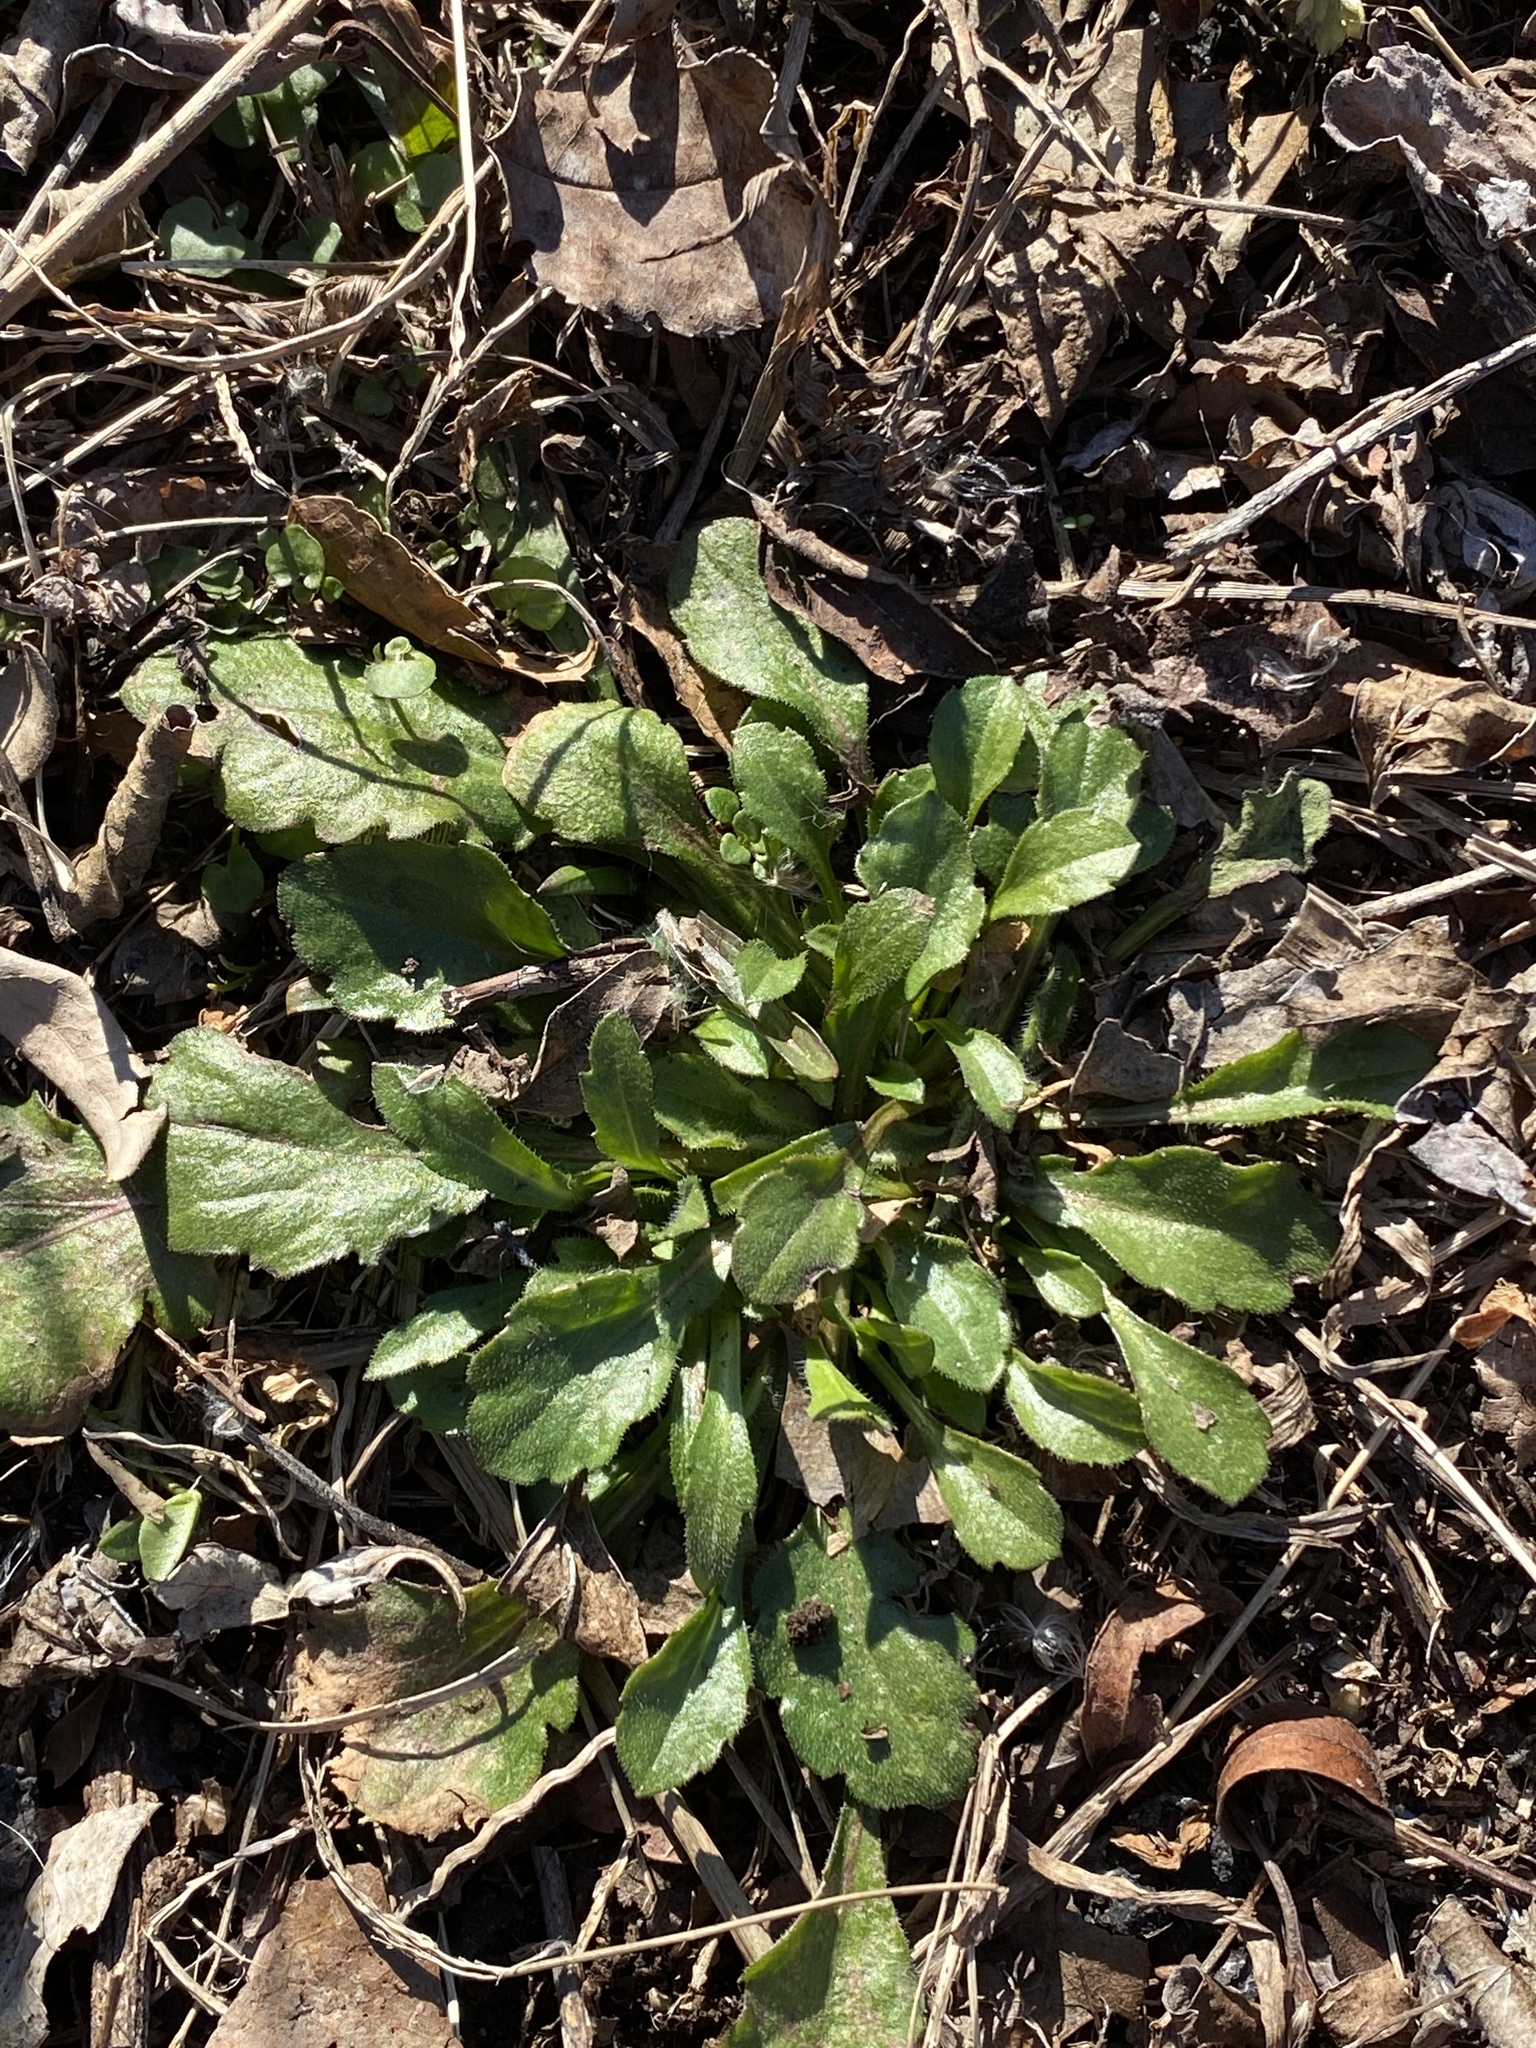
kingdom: Plantae
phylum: Tracheophyta
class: Magnoliopsida
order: Asterales
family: Asteraceae
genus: Erigeron
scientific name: Erigeron canadensis
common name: Canadian fleabane
